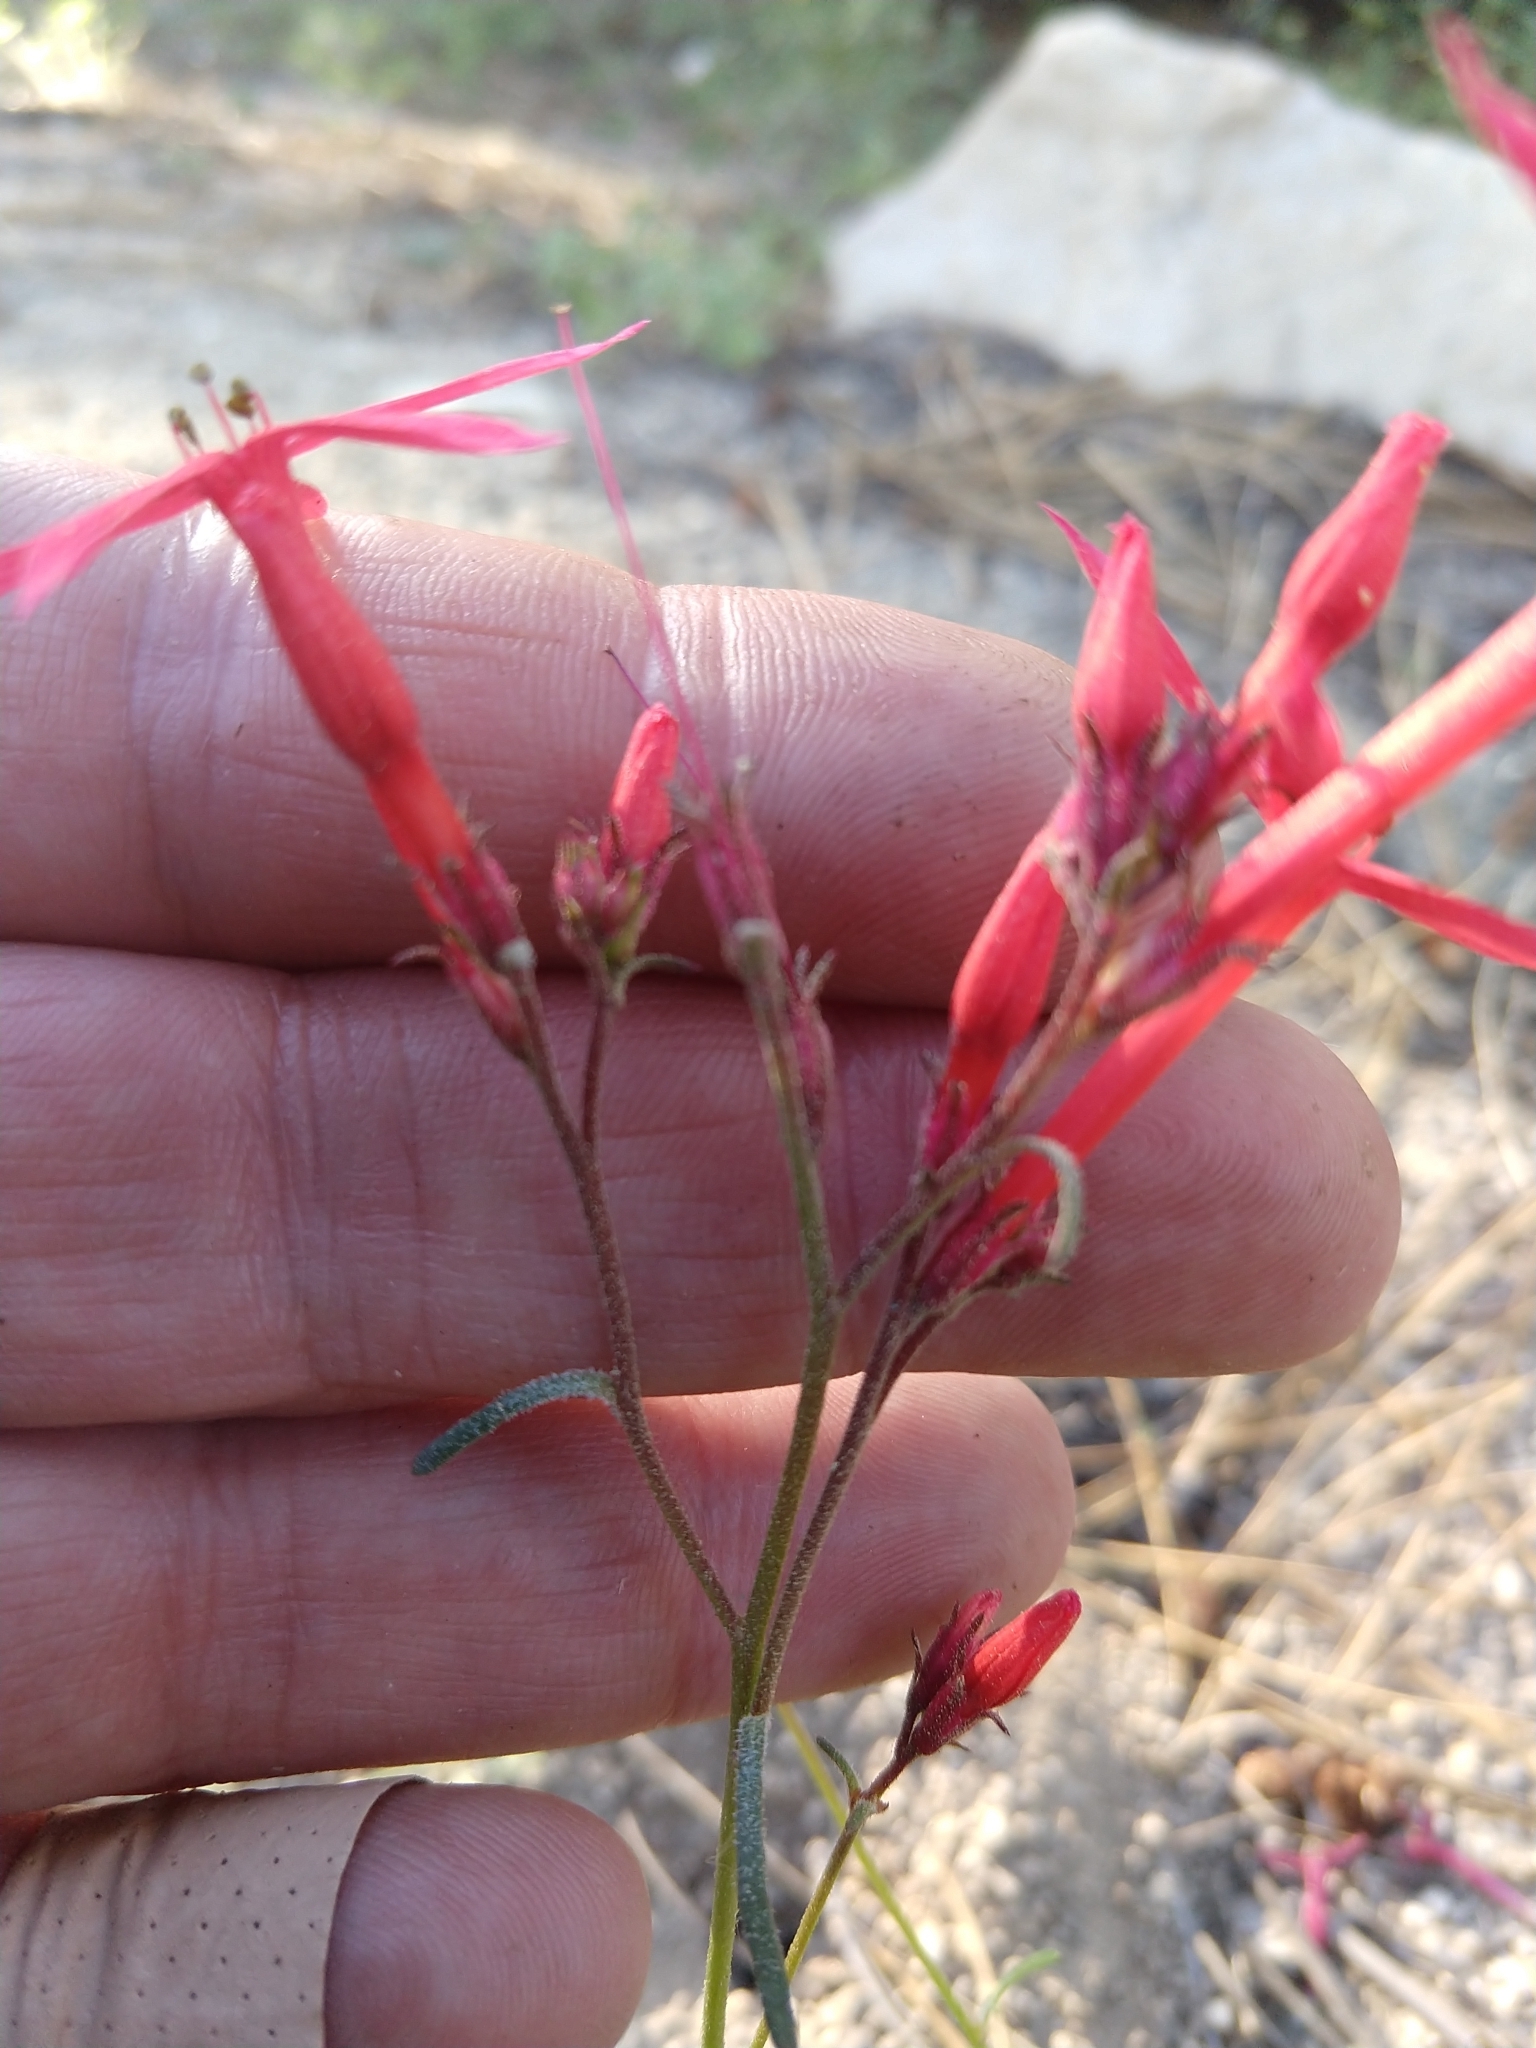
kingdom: Plantae
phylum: Tracheophyta
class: Magnoliopsida
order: Ericales
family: Polemoniaceae
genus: Ipomopsis
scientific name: Ipomopsis aggregata
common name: Scarlet gilia
